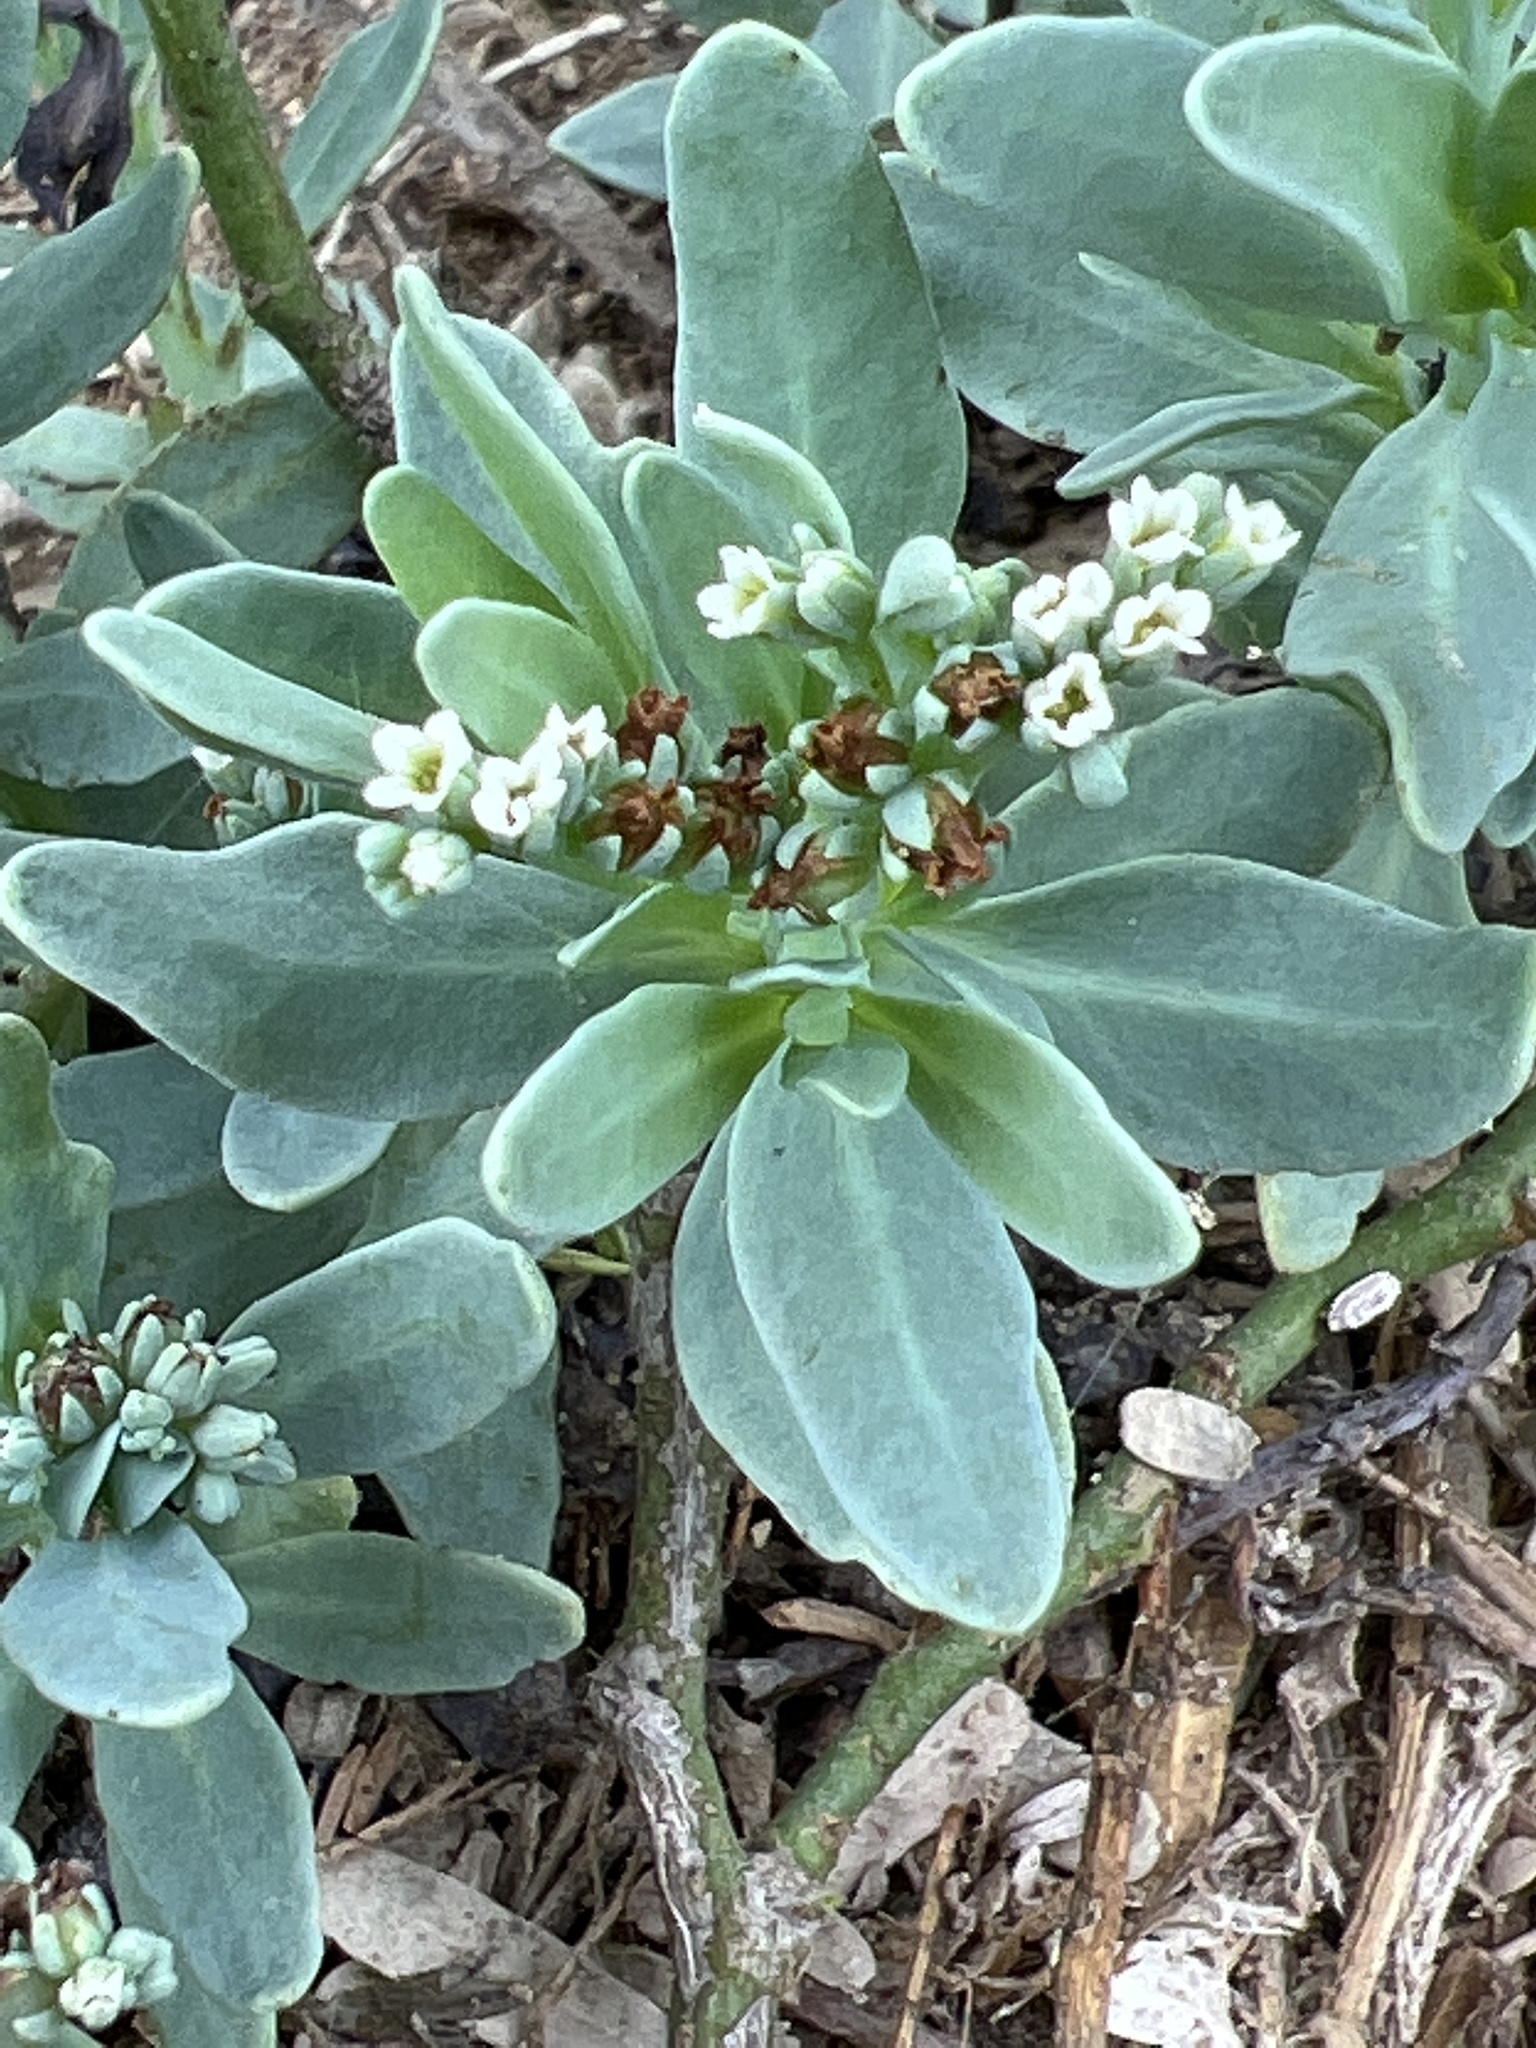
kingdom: Plantae
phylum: Tracheophyta
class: Magnoliopsida
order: Boraginales
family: Heliotropiaceae
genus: Heliotropium
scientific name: Heliotropium curassavicum
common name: Seaside heliotrope
